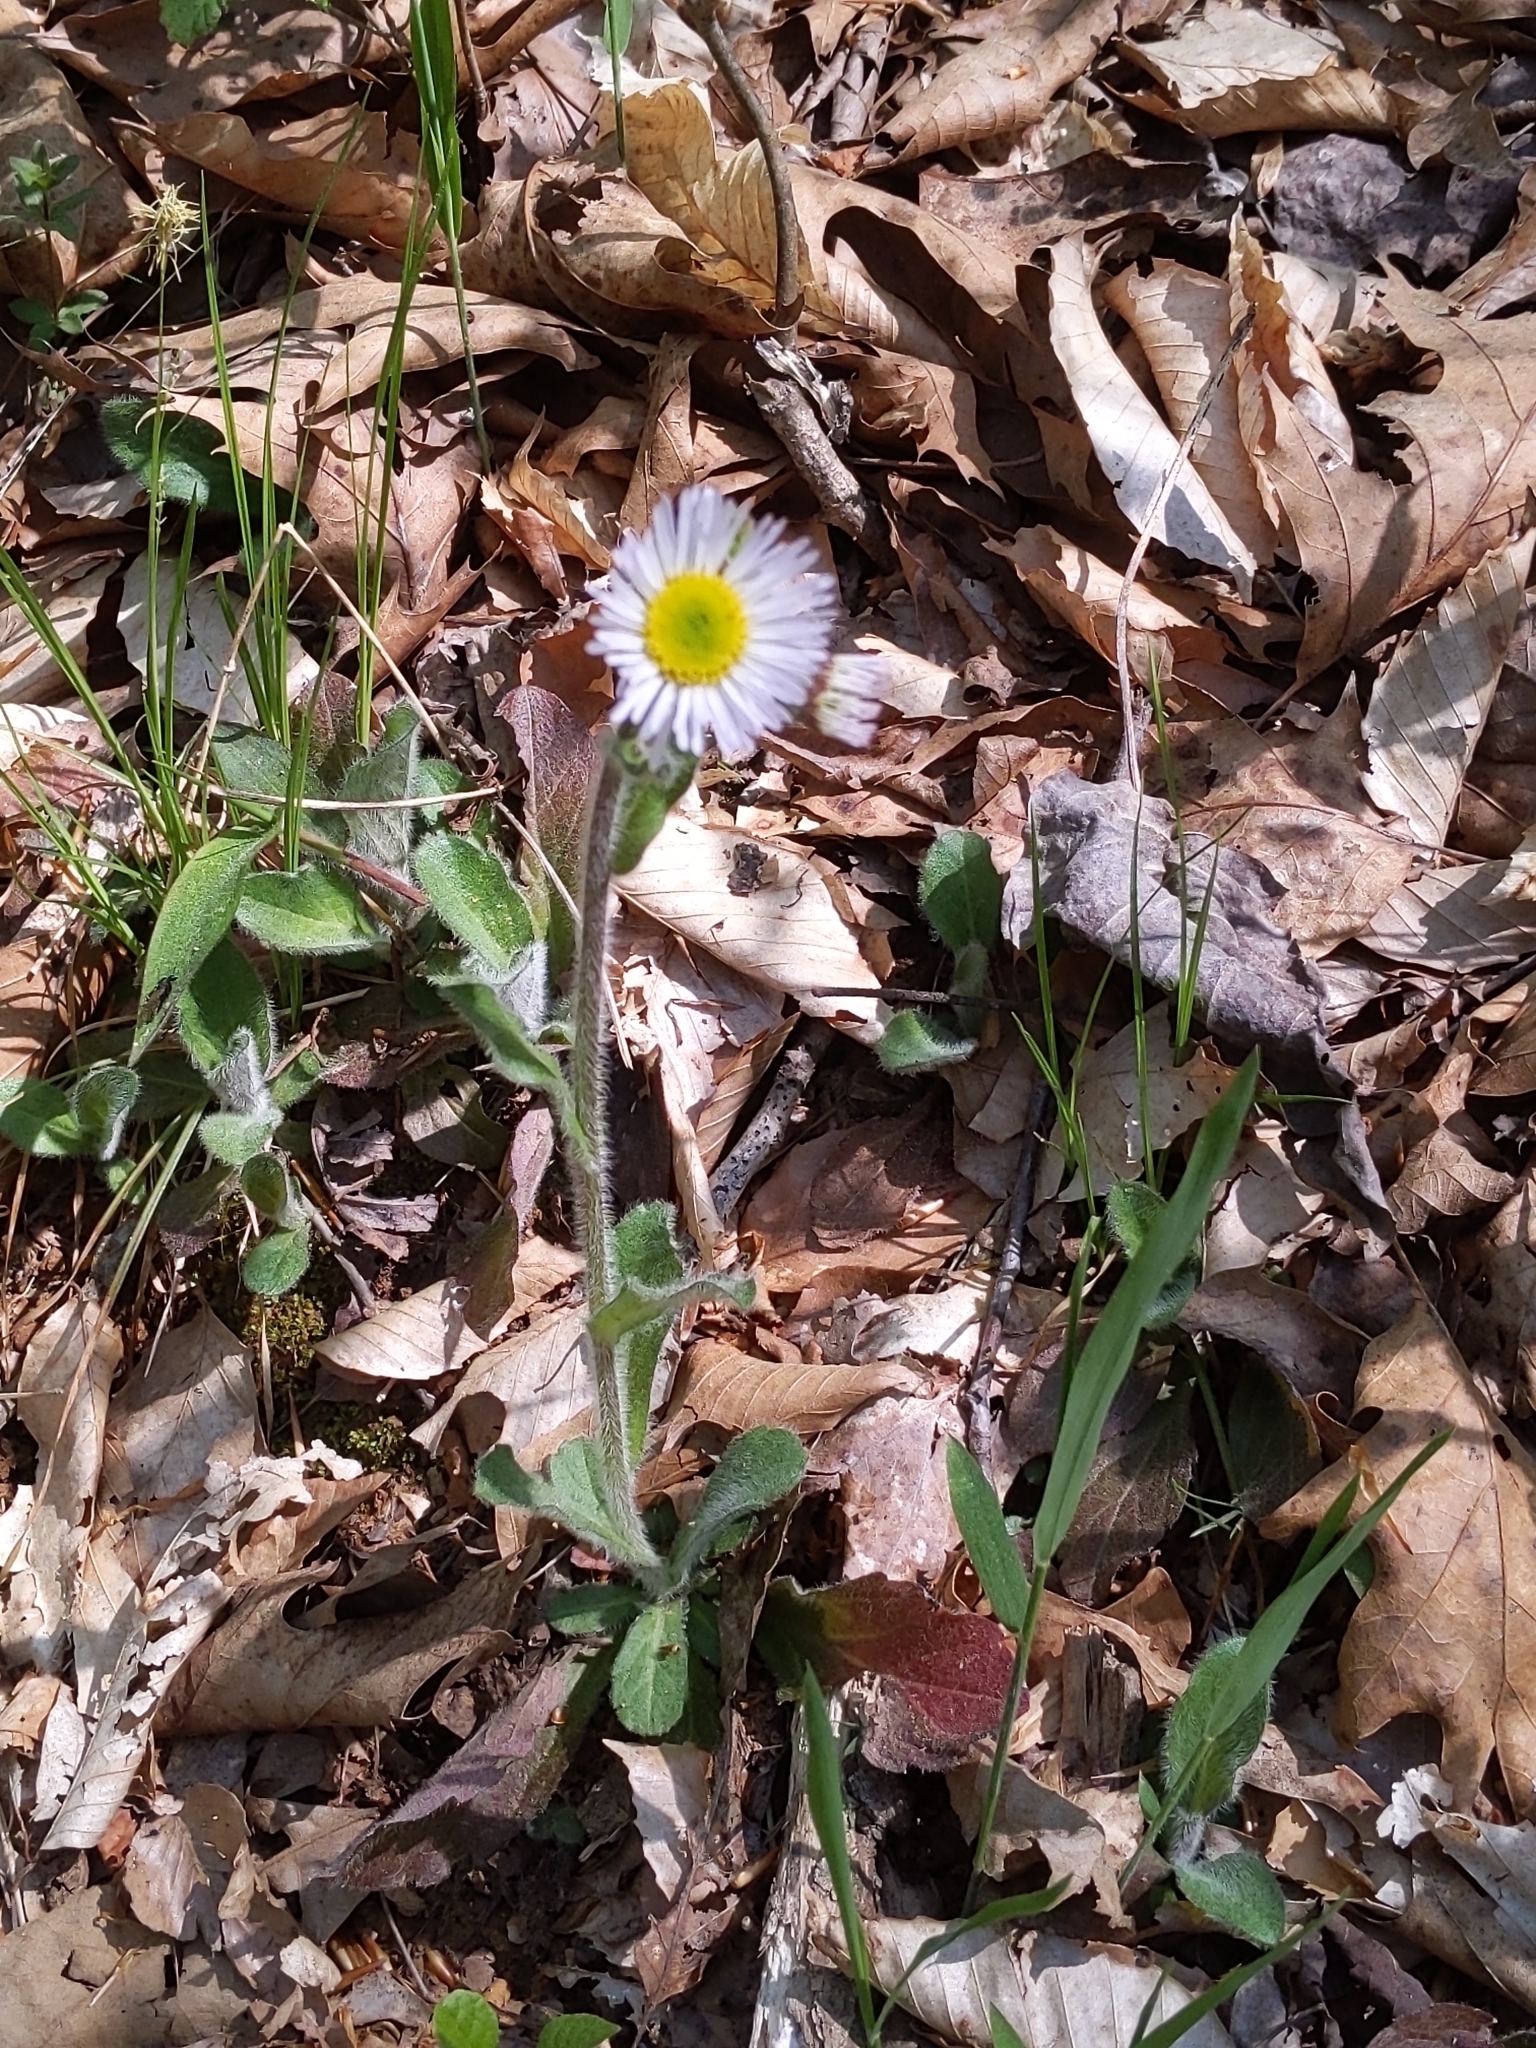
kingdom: Plantae
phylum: Tracheophyta
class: Magnoliopsida
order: Asterales
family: Asteraceae
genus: Erigeron
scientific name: Erigeron pulchellus
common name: Hairy fleabane
